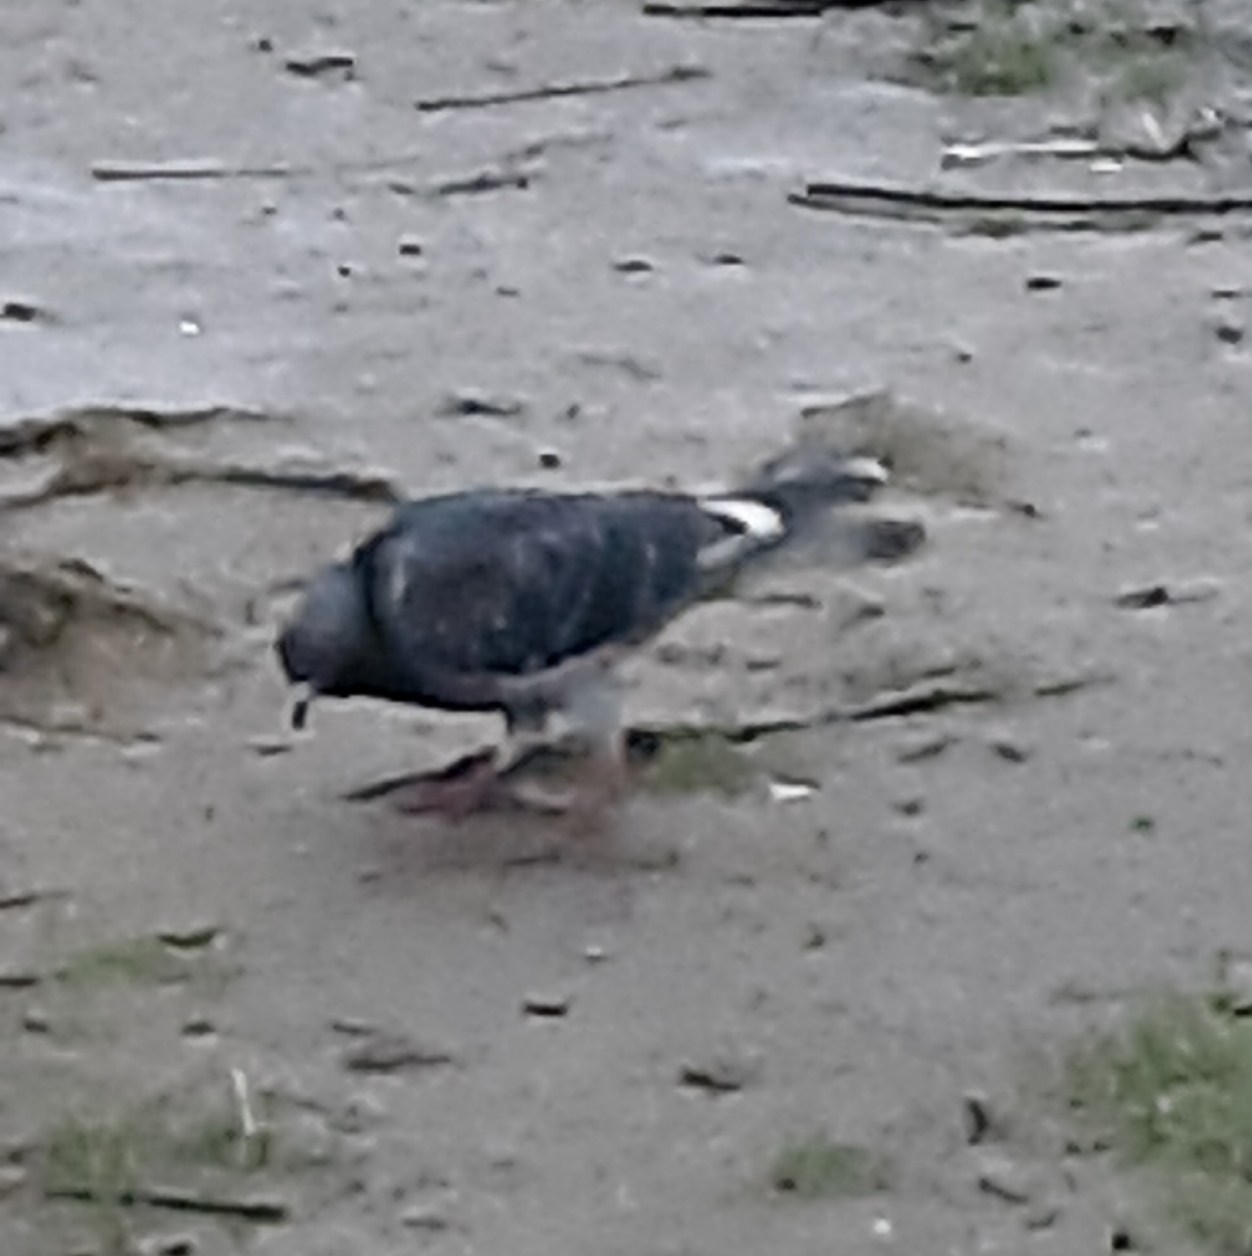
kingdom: Animalia
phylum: Chordata
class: Aves
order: Columbiformes
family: Columbidae
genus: Columba
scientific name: Columba livia
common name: Rock pigeon
